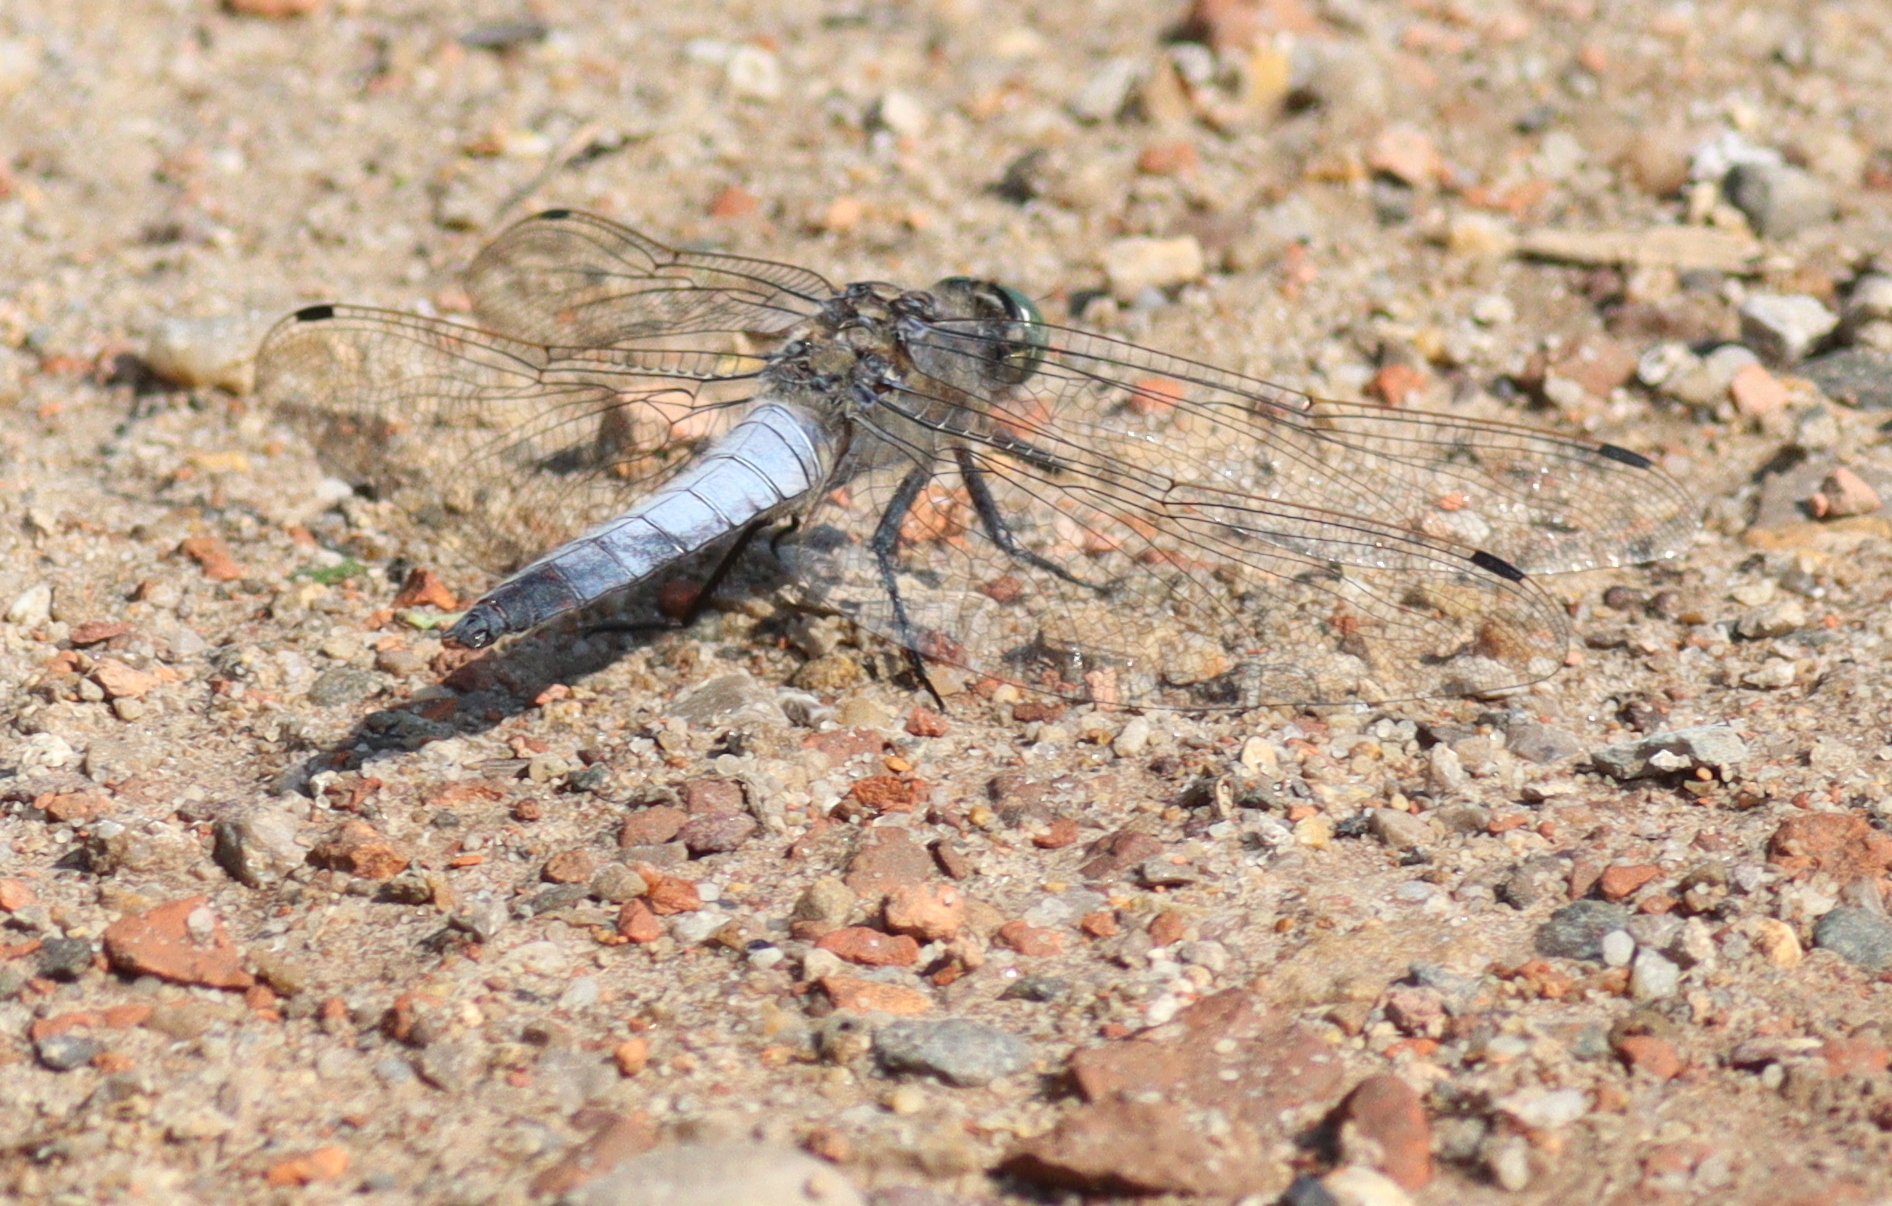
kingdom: Animalia
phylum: Arthropoda
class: Insecta
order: Odonata
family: Libellulidae
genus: Orthetrum
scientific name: Orthetrum cancellatum
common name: Black-tailed skimmer
